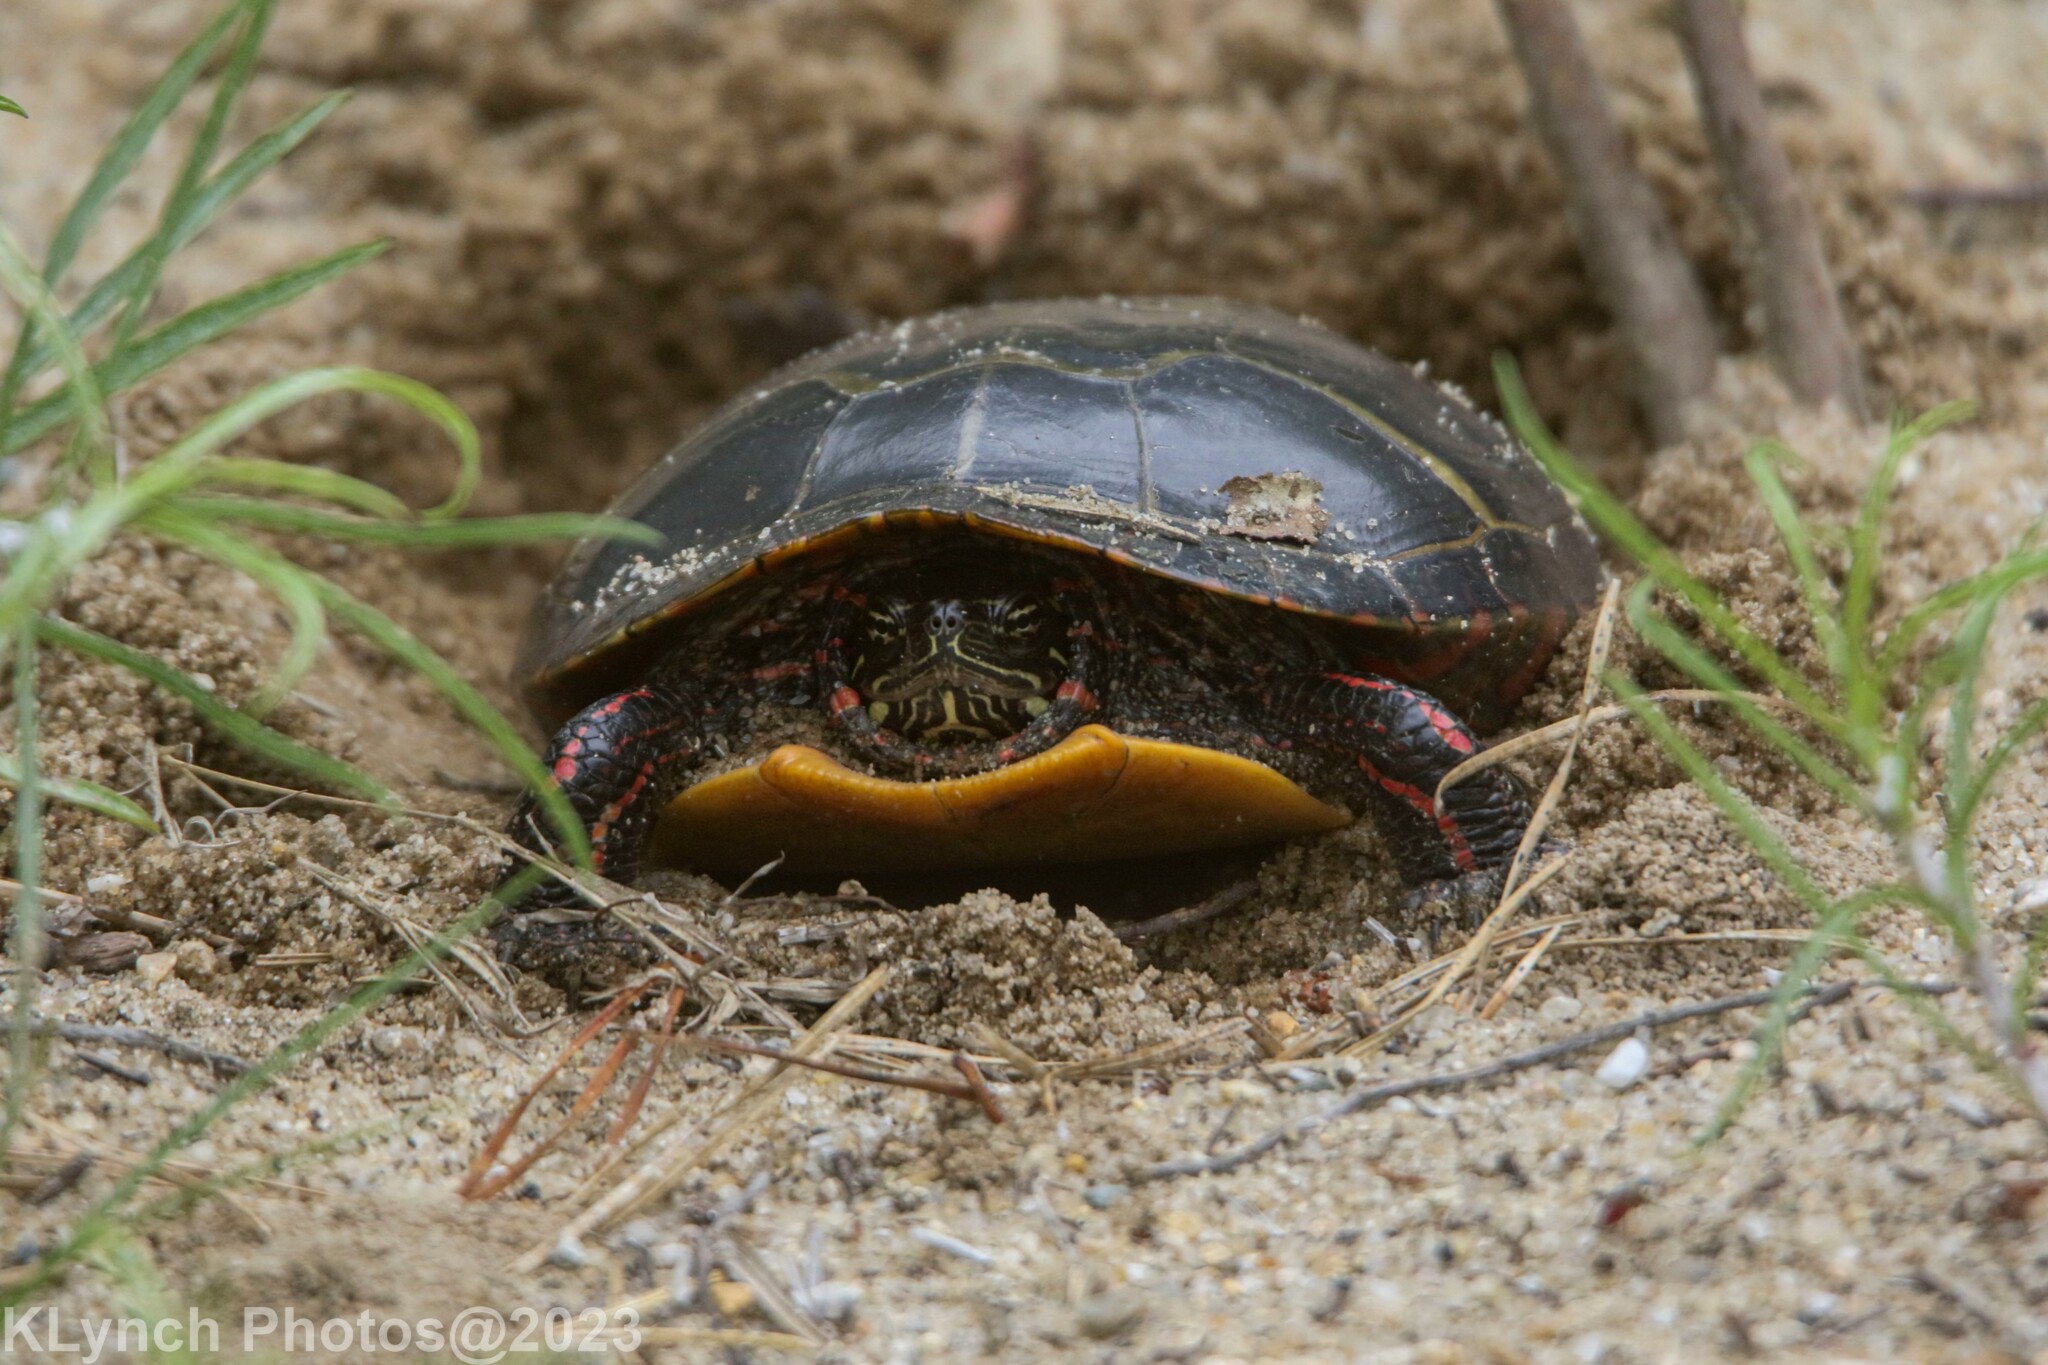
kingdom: Animalia
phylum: Chordata
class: Testudines
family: Emydidae
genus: Chrysemys
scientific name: Chrysemys picta
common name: Painted turtle
